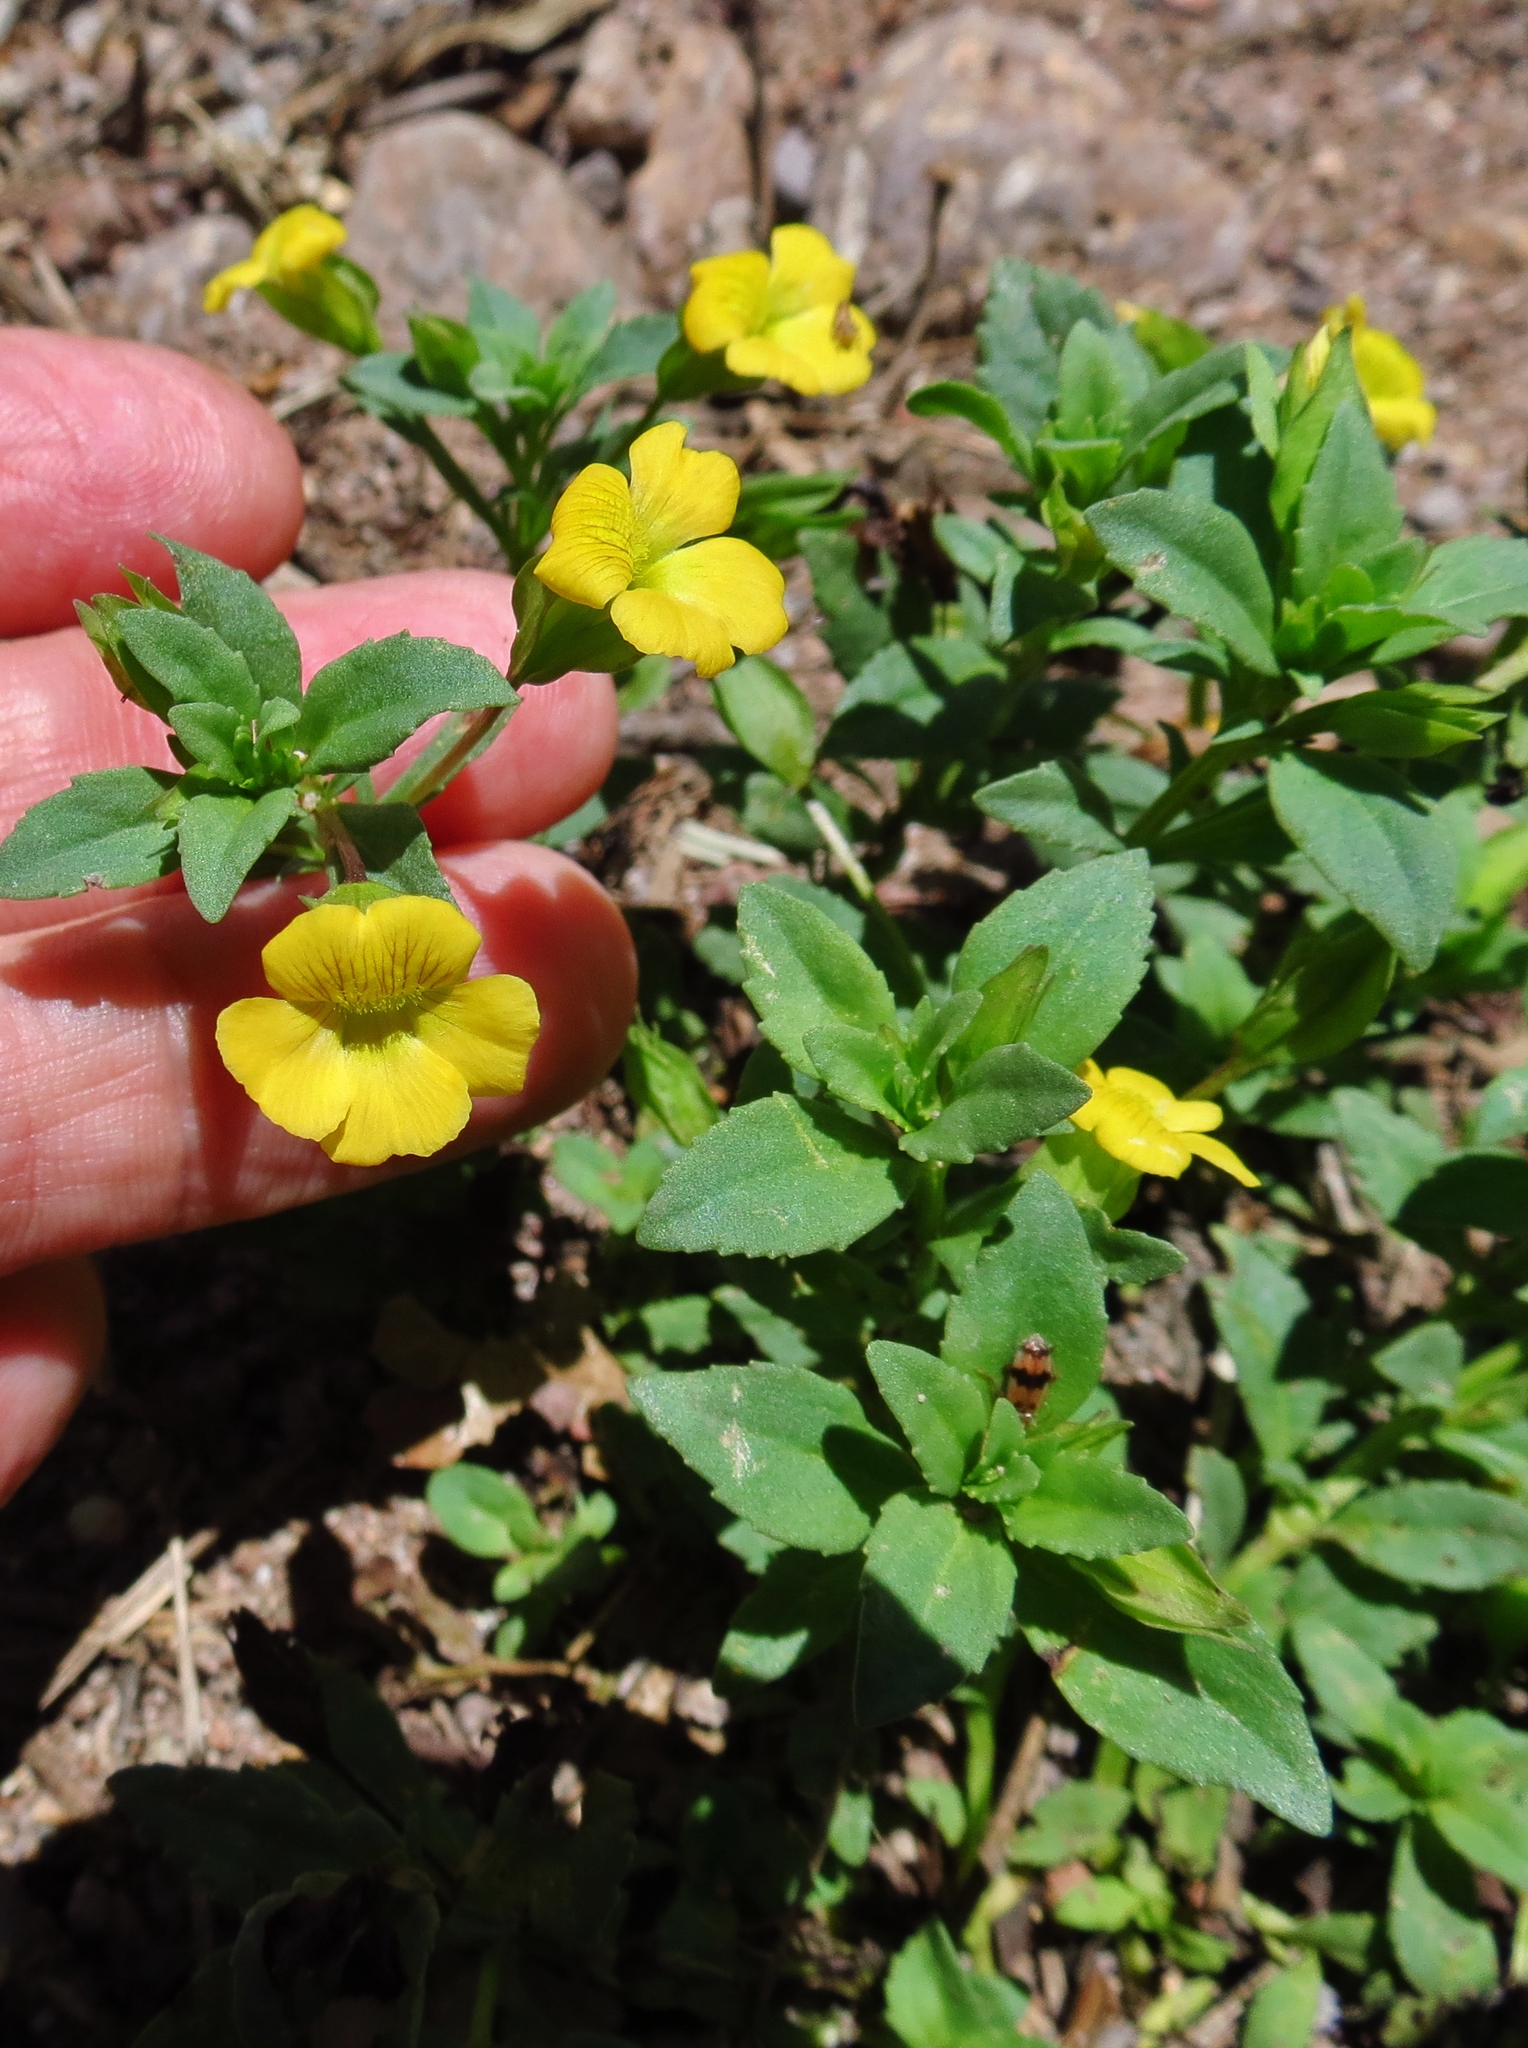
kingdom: Plantae
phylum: Tracheophyta
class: Magnoliopsida
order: Lamiales
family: Plantaginaceae
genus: Mecardonia
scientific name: Mecardonia procumbens
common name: Baby jump-up
